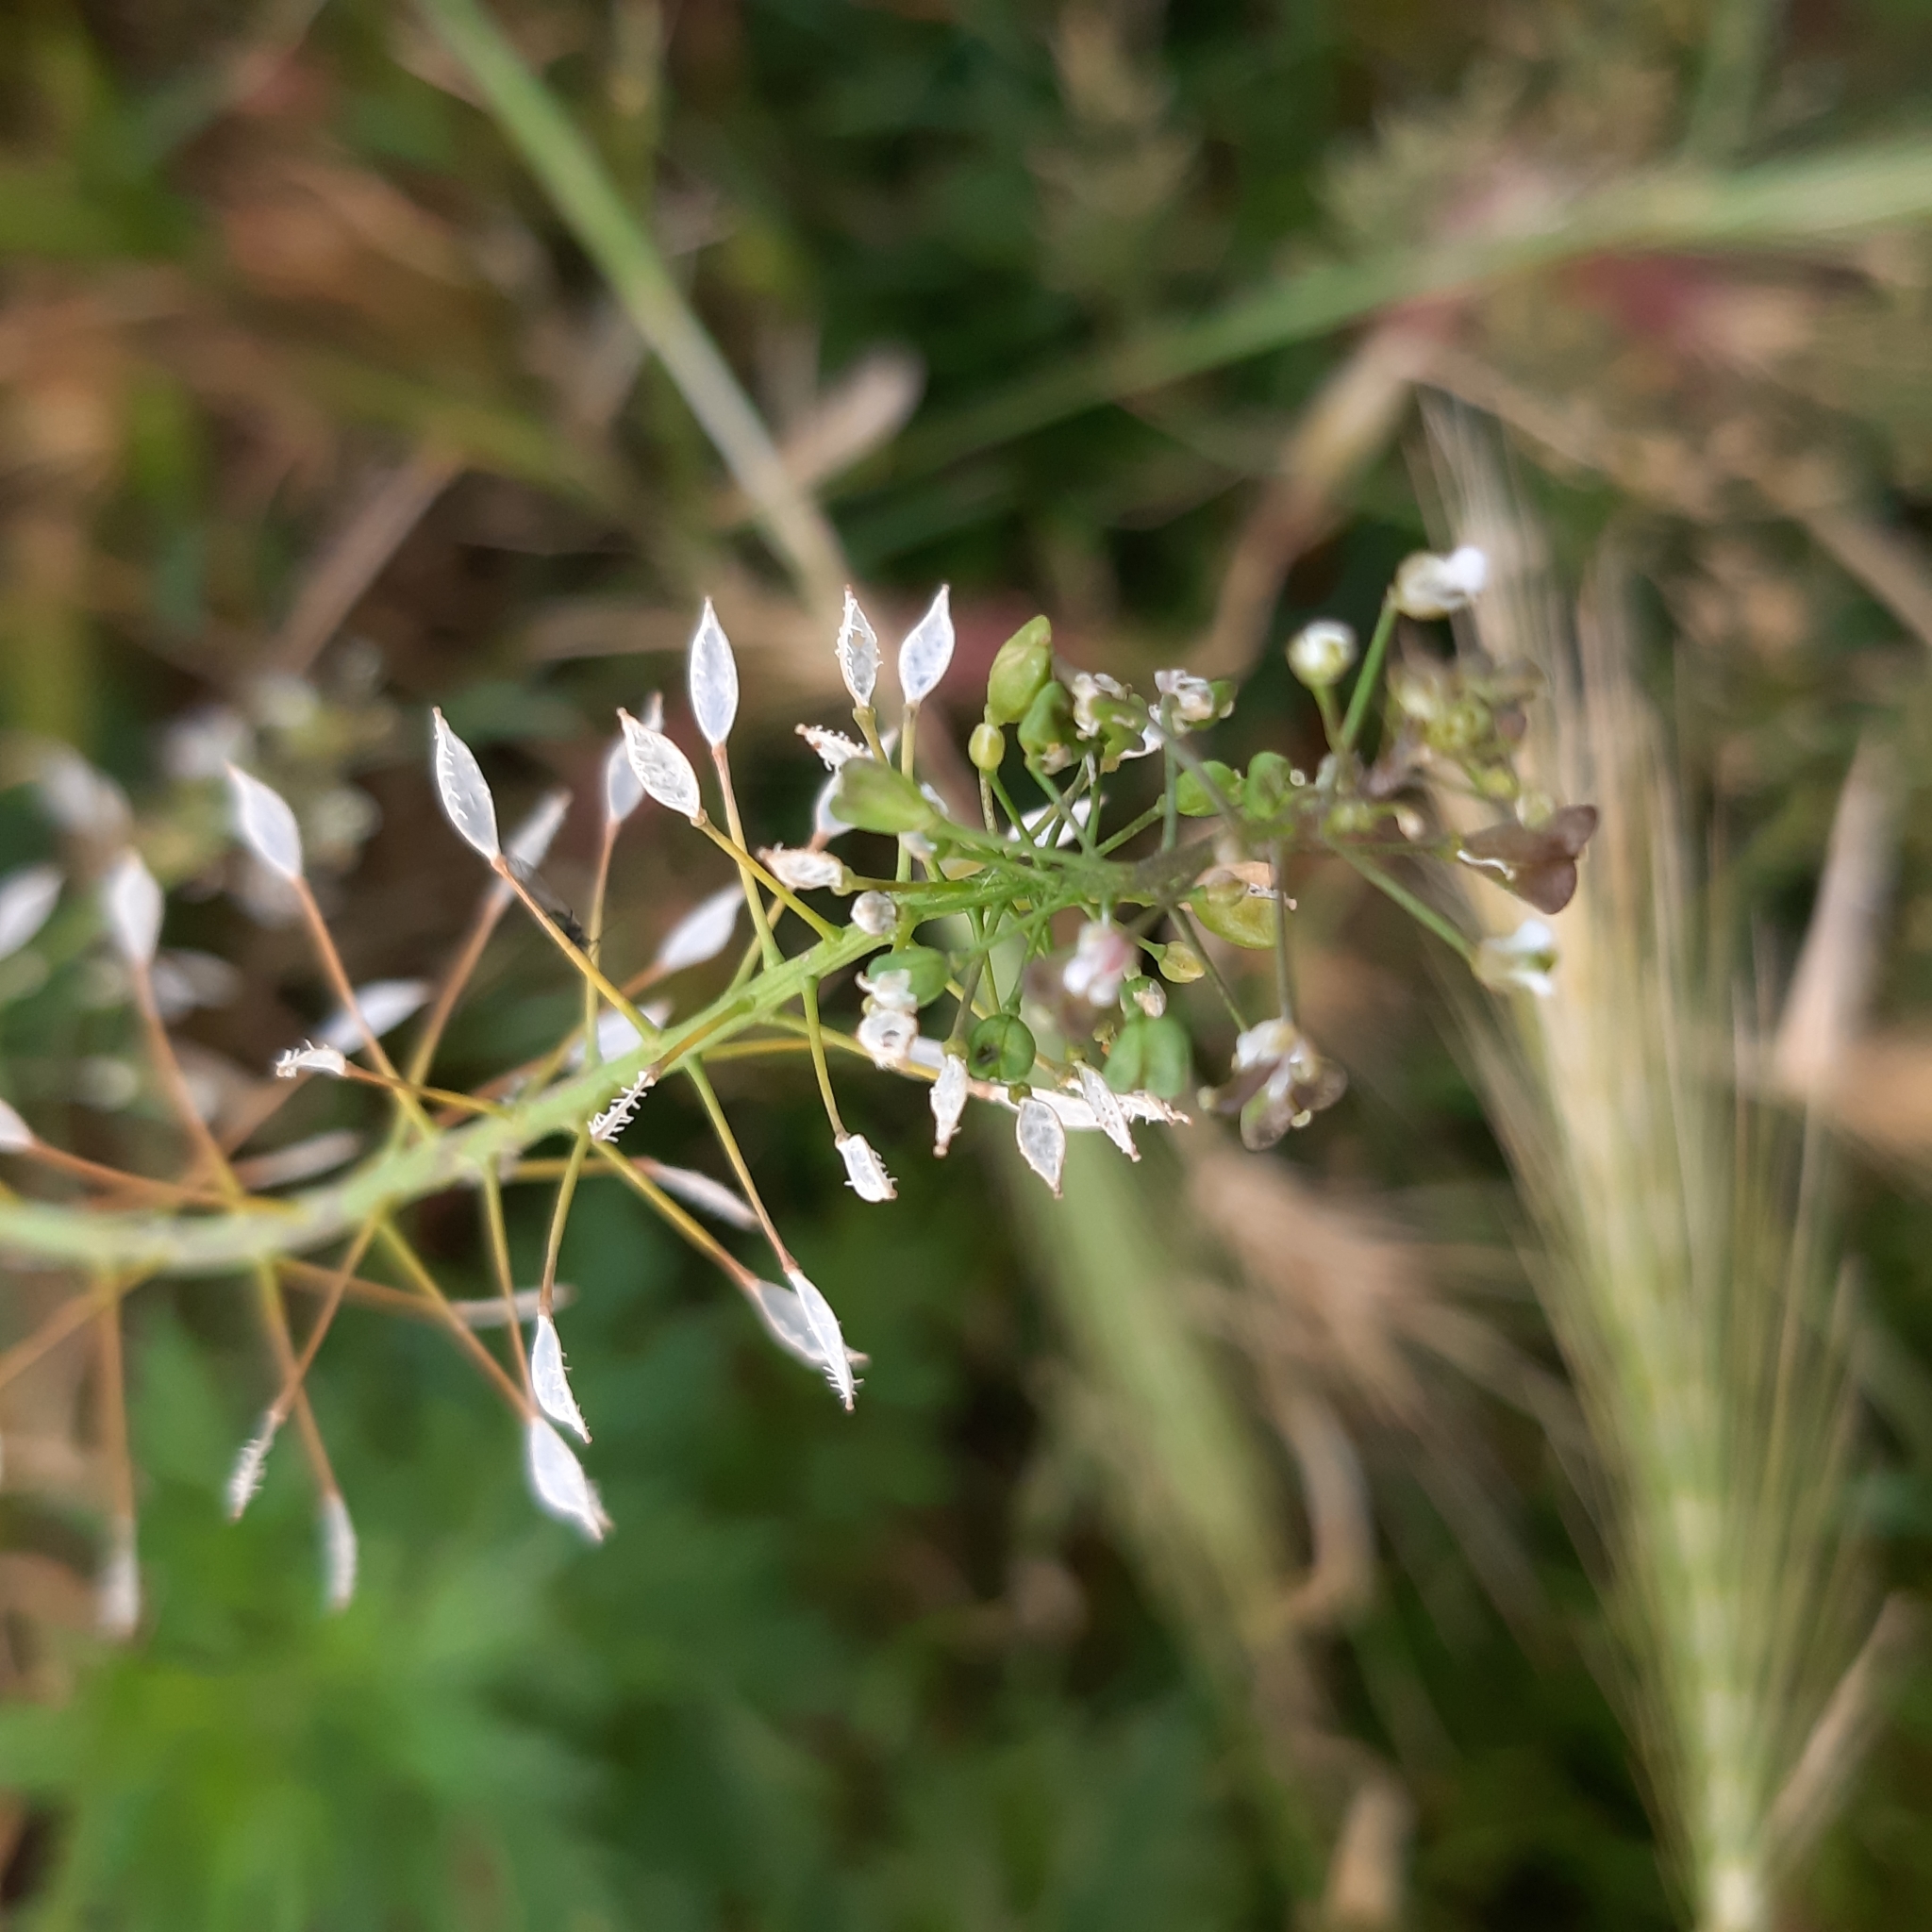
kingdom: Plantae
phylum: Tracheophyta
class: Magnoliopsida
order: Brassicales
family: Brassicaceae
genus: Capsella
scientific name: Capsella bursa-pastoris
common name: Shepherd's purse
